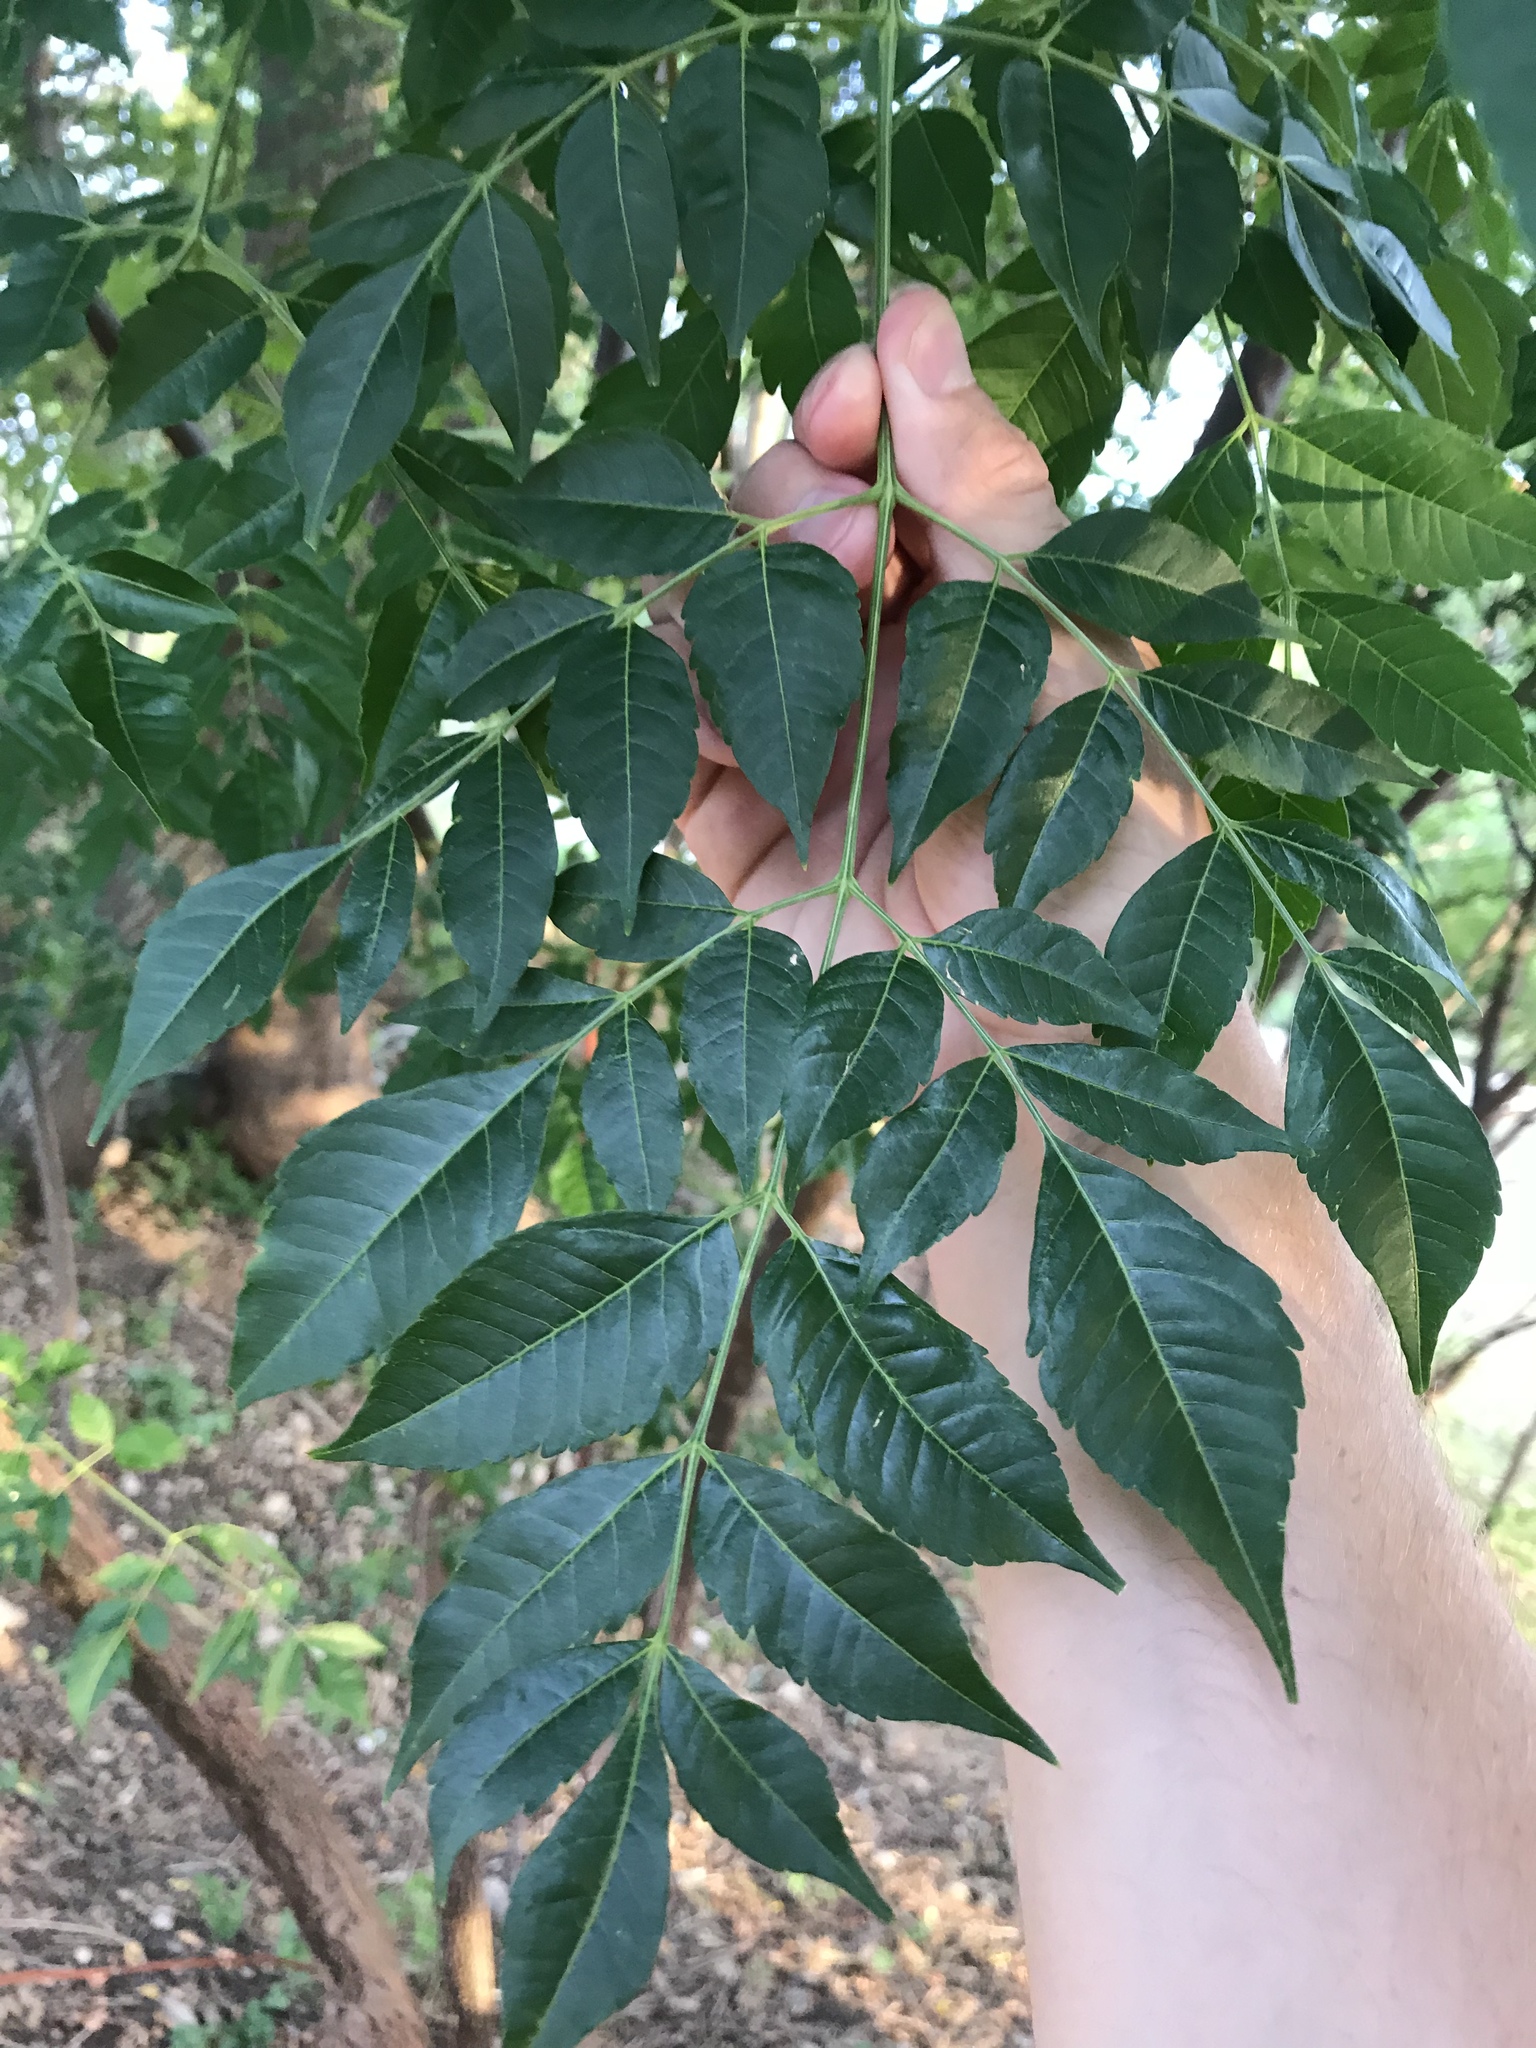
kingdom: Plantae
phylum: Tracheophyta
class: Magnoliopsida
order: Sapindales
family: Meliaceae
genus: Melia
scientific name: Melia azedarach
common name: Chinaberrytree
